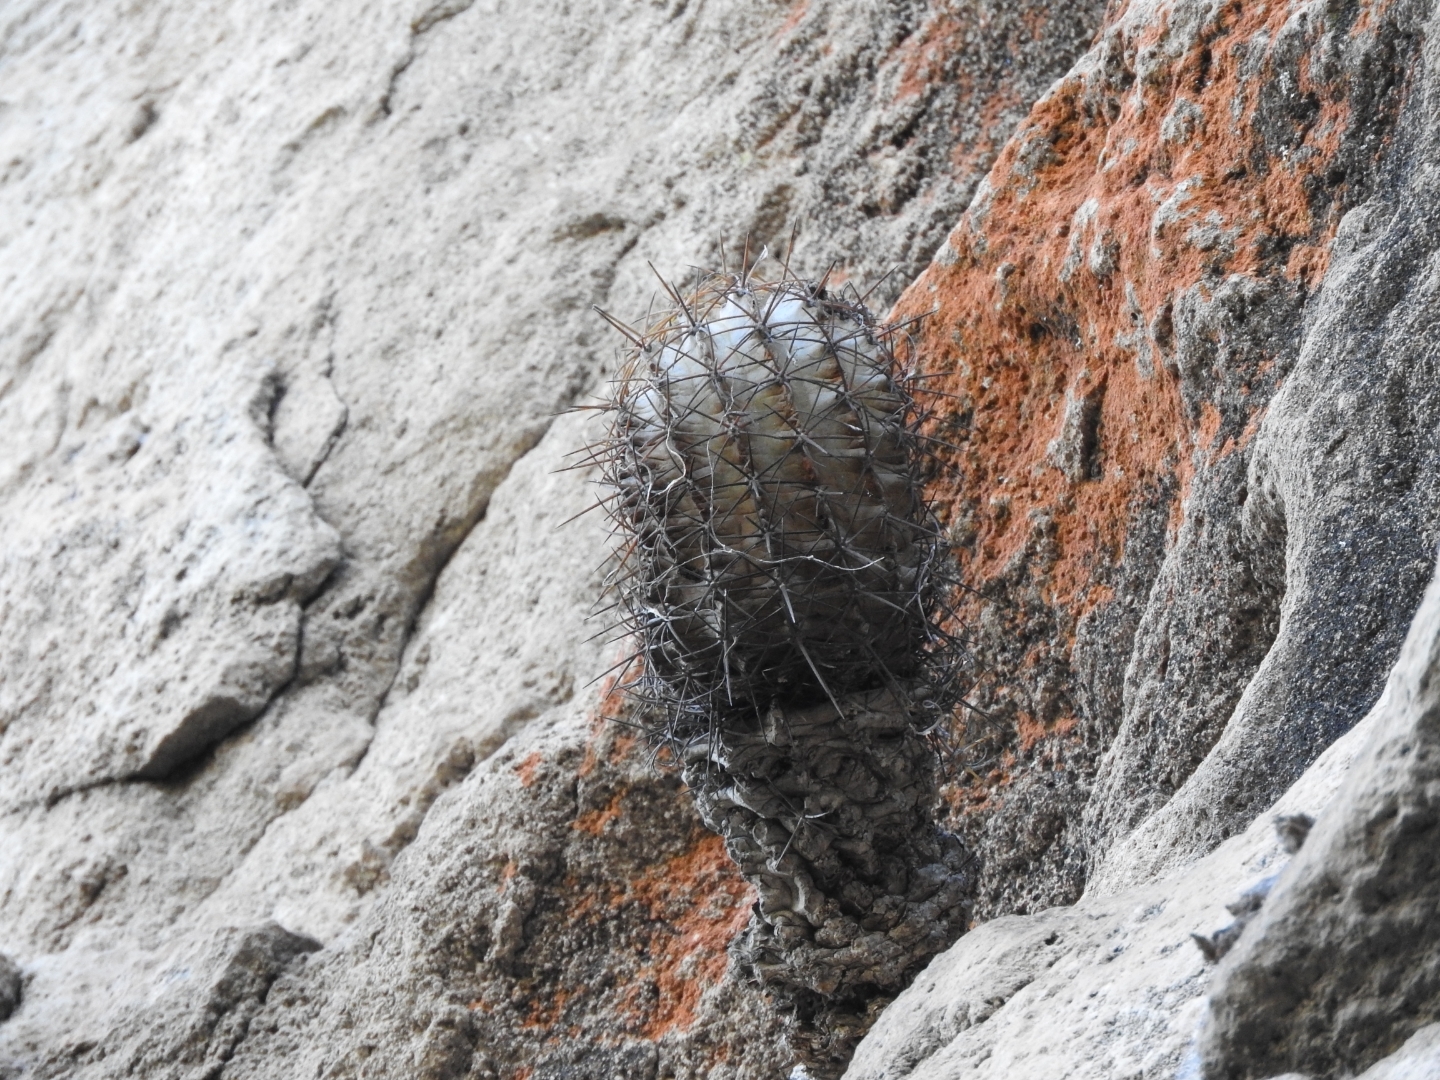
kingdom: Plantae
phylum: Tracheophyta
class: Magnoliopsida
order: Caryophyllales
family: Cactaceae
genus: Bisnaga
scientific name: Bisnaga histrix
